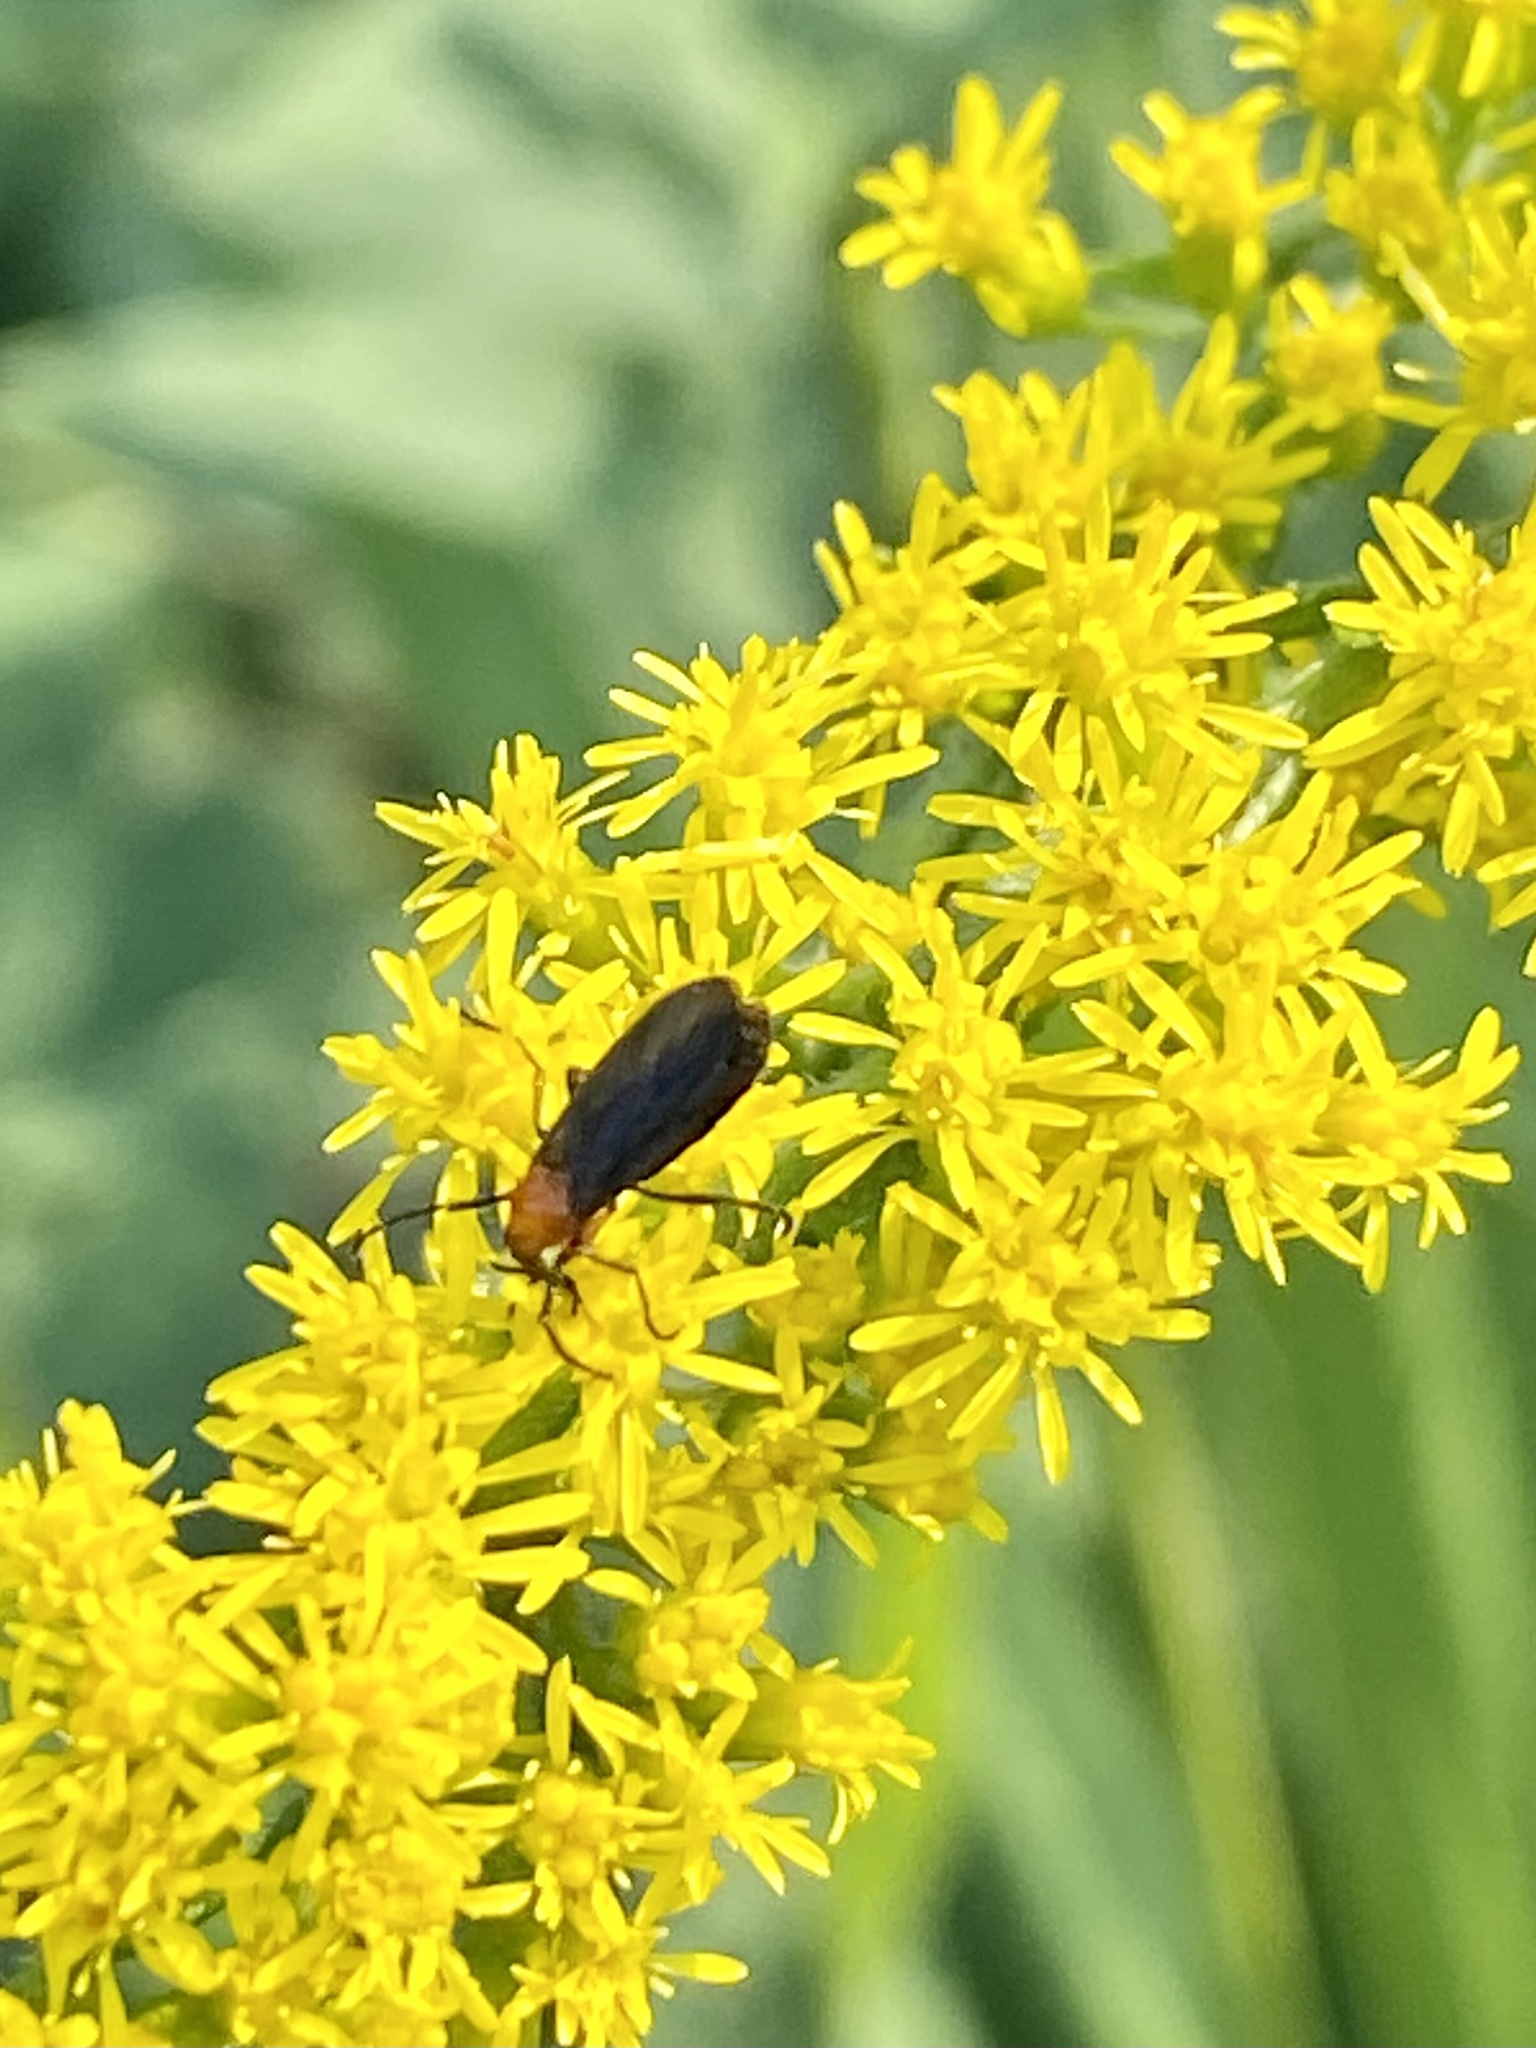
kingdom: Animalia
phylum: Arthropoda
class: Insecta
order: Diptera
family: Bibionidae
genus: Dilophus
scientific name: Dilophus spinipes
